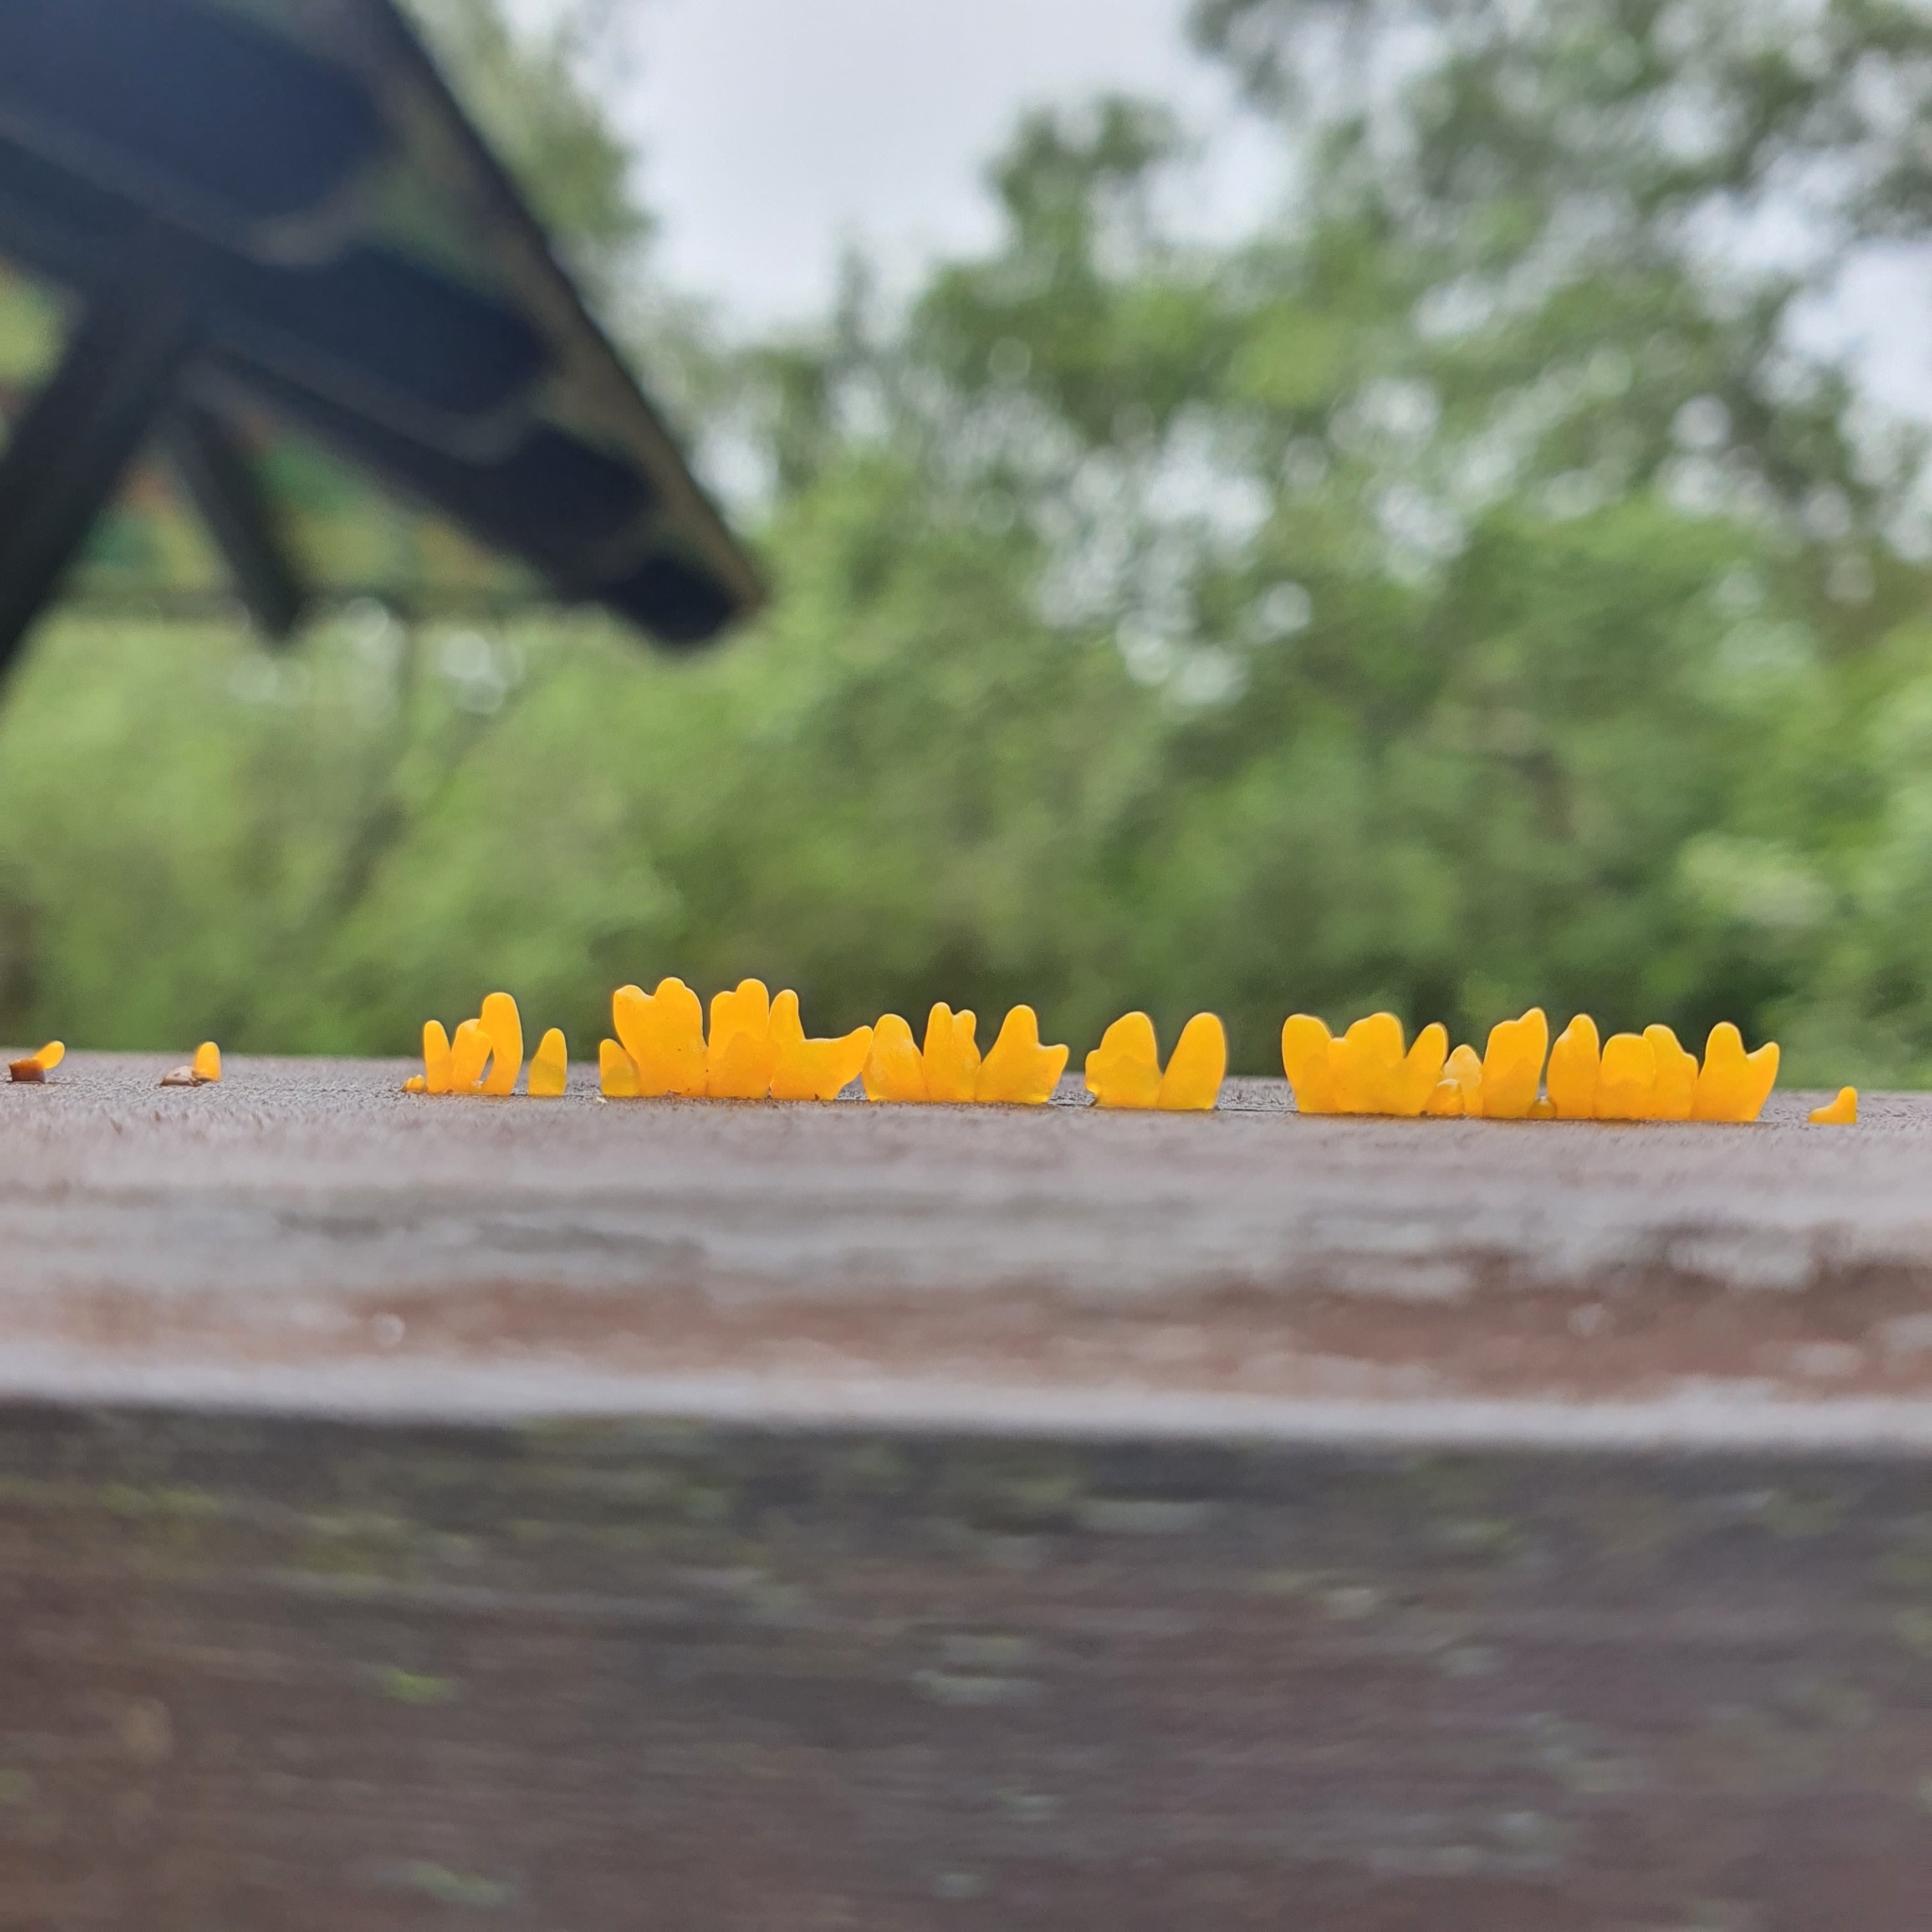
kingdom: Fungi
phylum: Basidiomycota
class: Dacrymycetes
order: Dacrymycetales
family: Dacrymycetaceae
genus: Dacrymyces
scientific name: Dacrymyces spathularius
